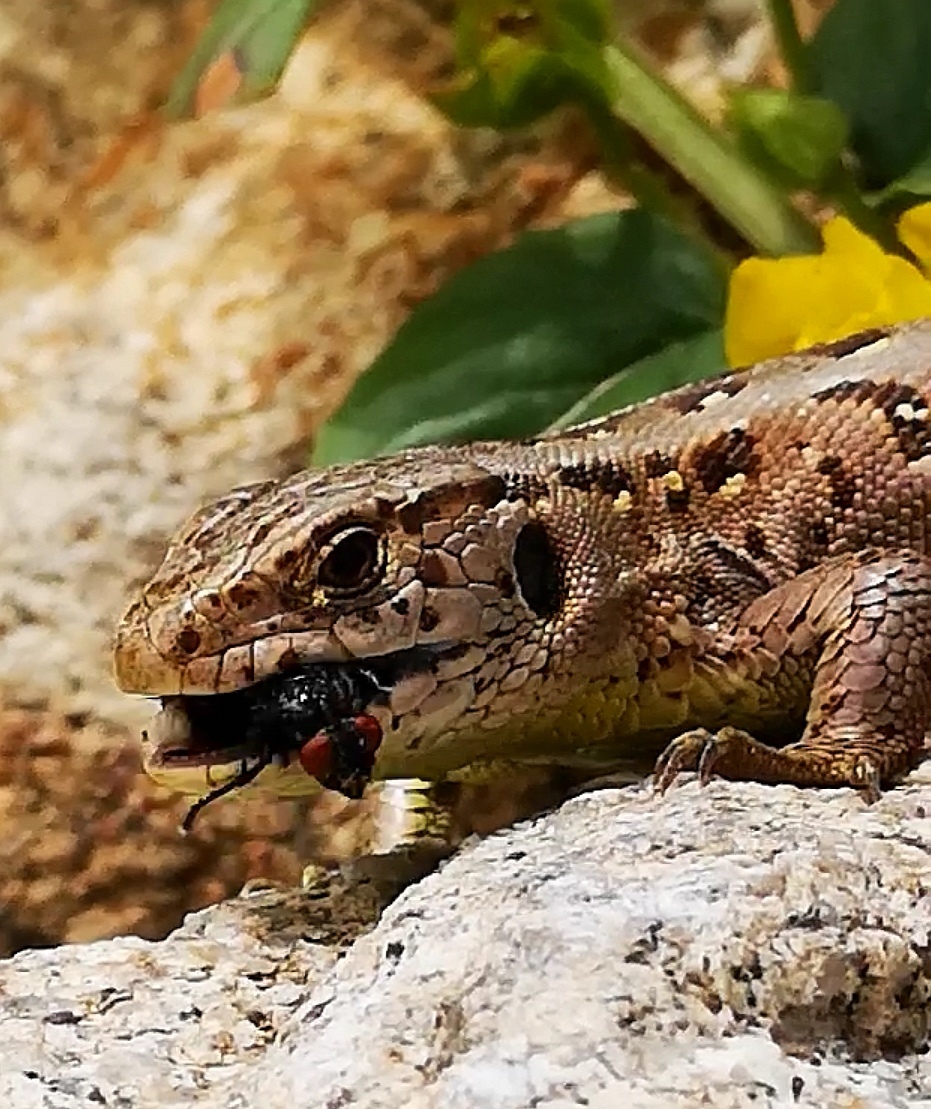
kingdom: Animalia
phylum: Chordata
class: Squamata
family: Lacertidae
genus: Lacerta
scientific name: Lacerta agilis
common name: Sand lizard
